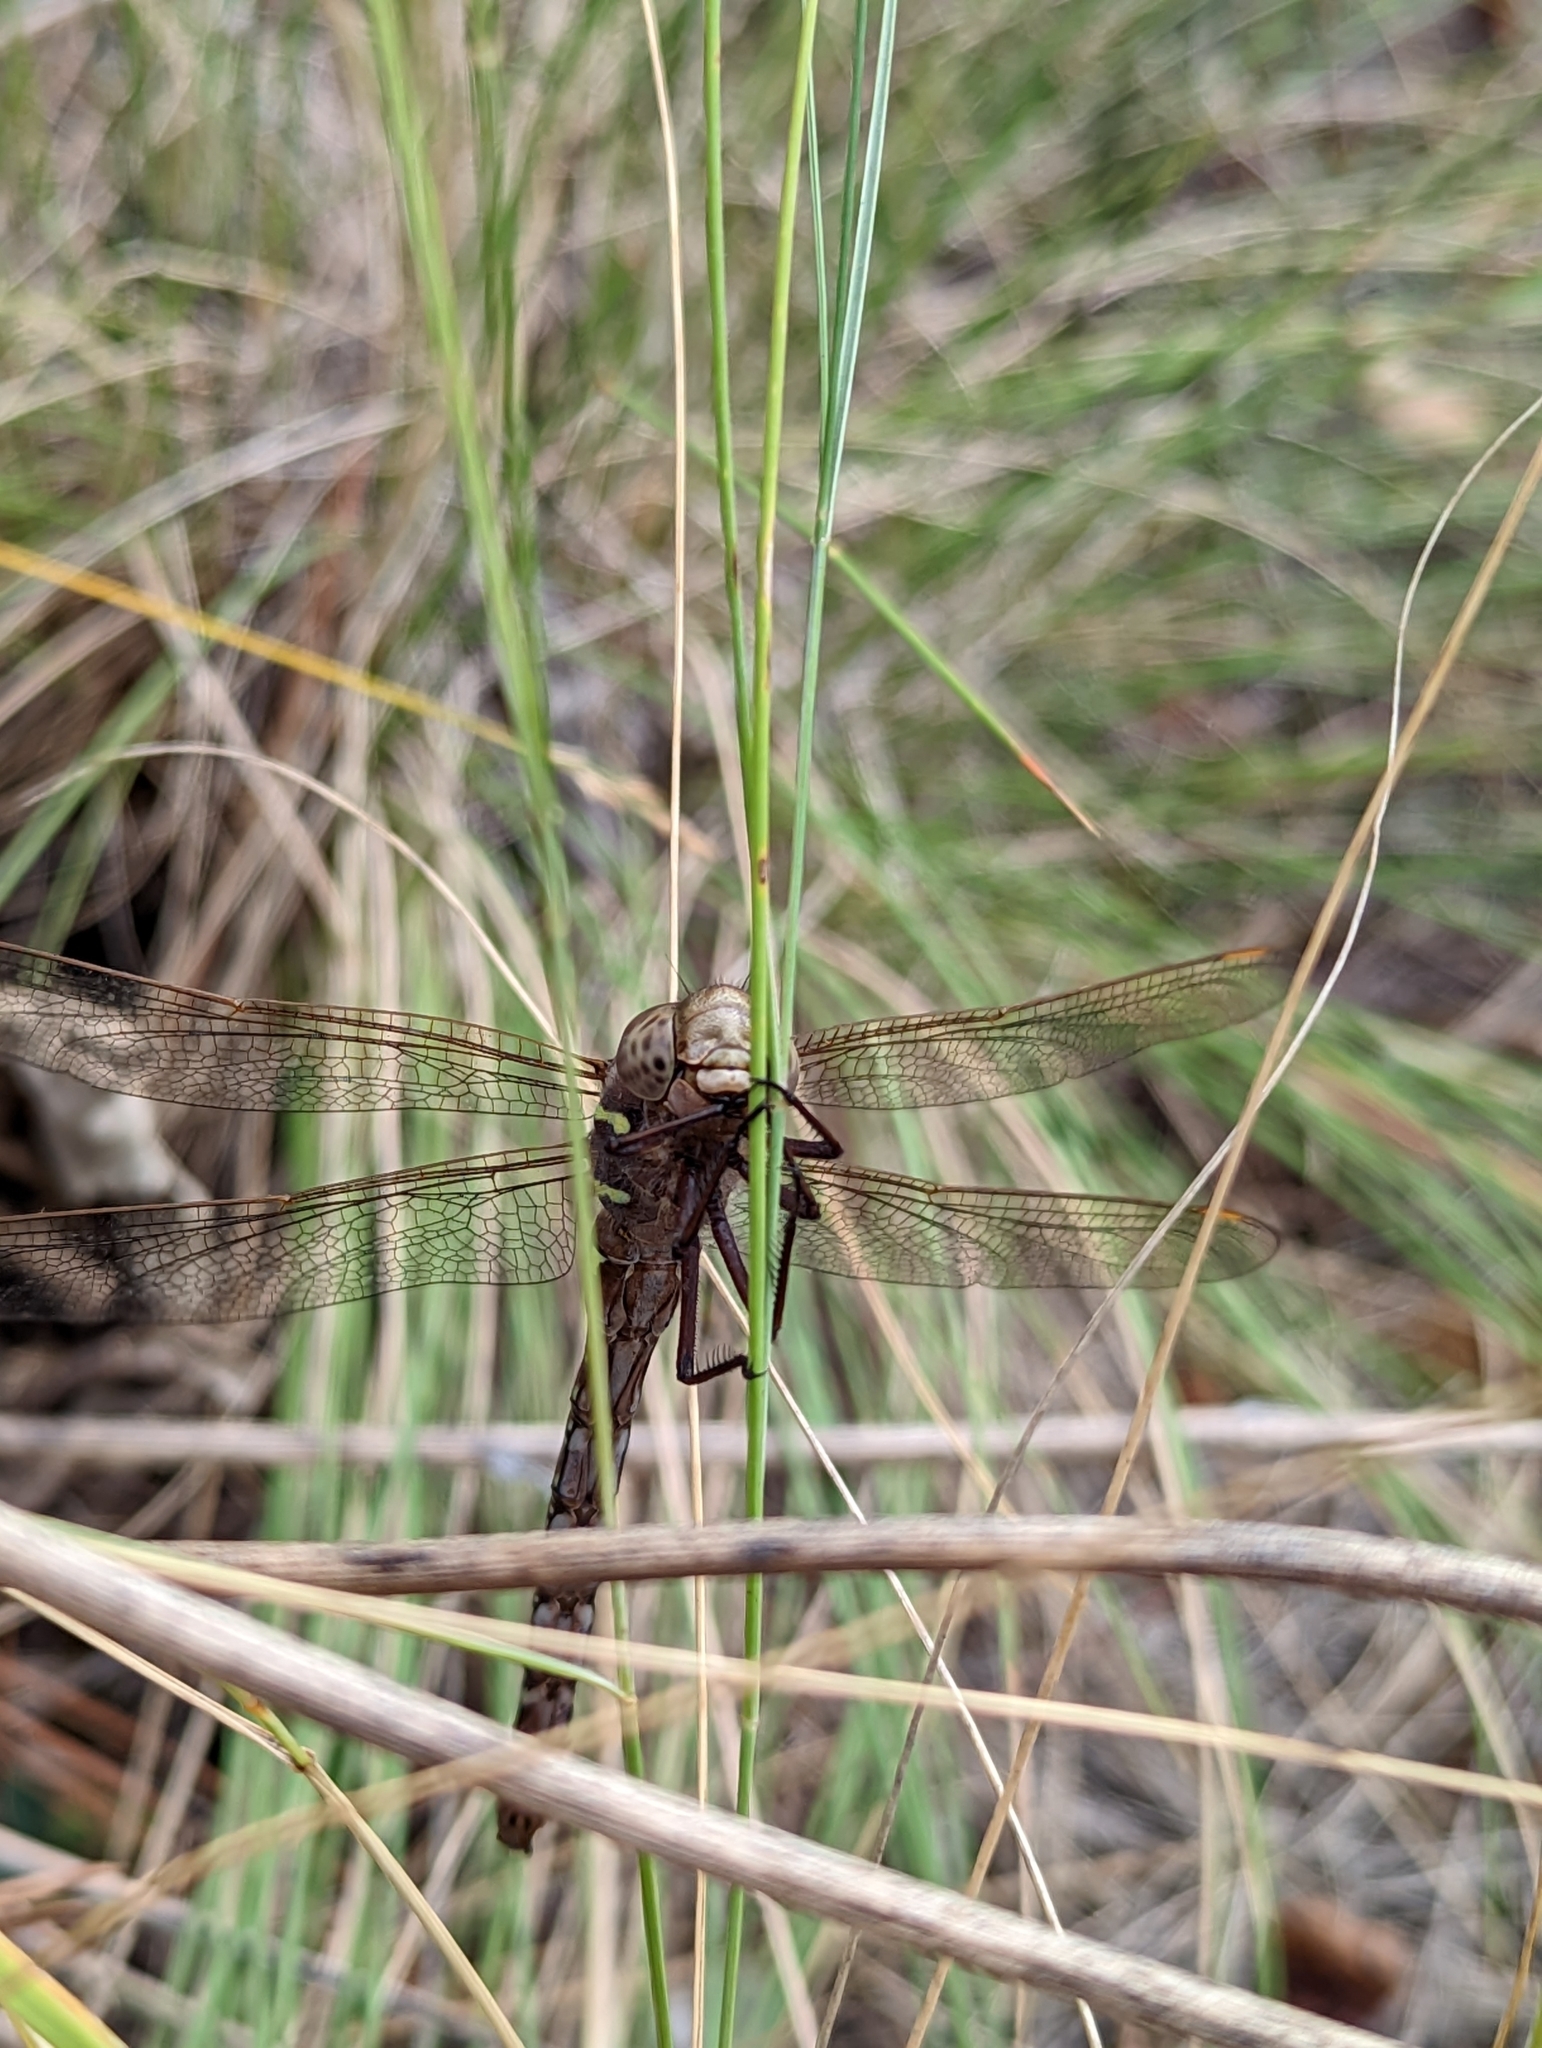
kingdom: Animalia
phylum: Arthropoda
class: Insecta
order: Odonata
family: Aeshnidae
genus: Aeshna
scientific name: Aeshna umbrosa
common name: Shadow darner
